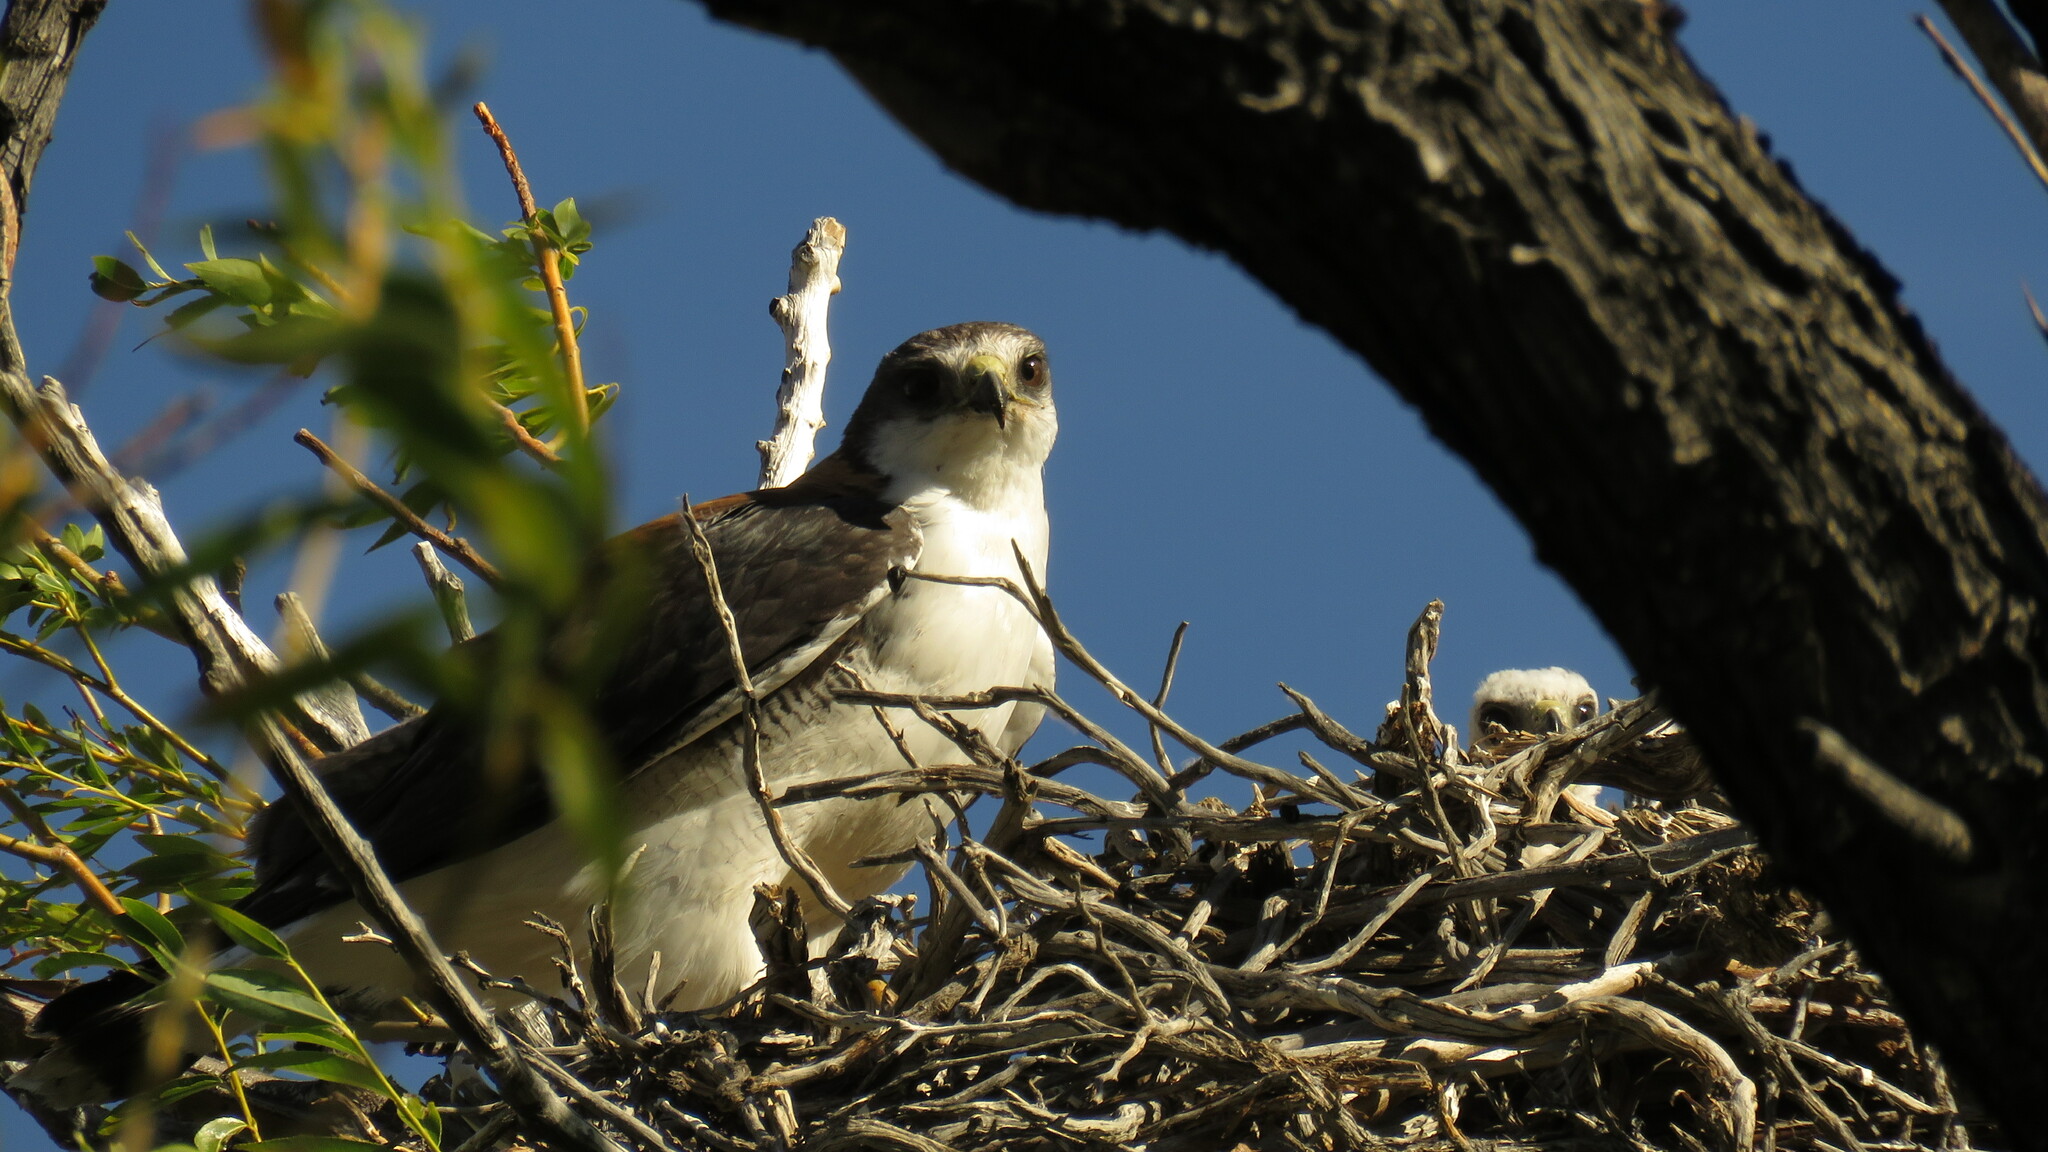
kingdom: Animalia
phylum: Chordata
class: Aves
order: Accipitriformes
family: Accipitridae
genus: Buteo
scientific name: Buteo polyosoma
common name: Variable hawk
